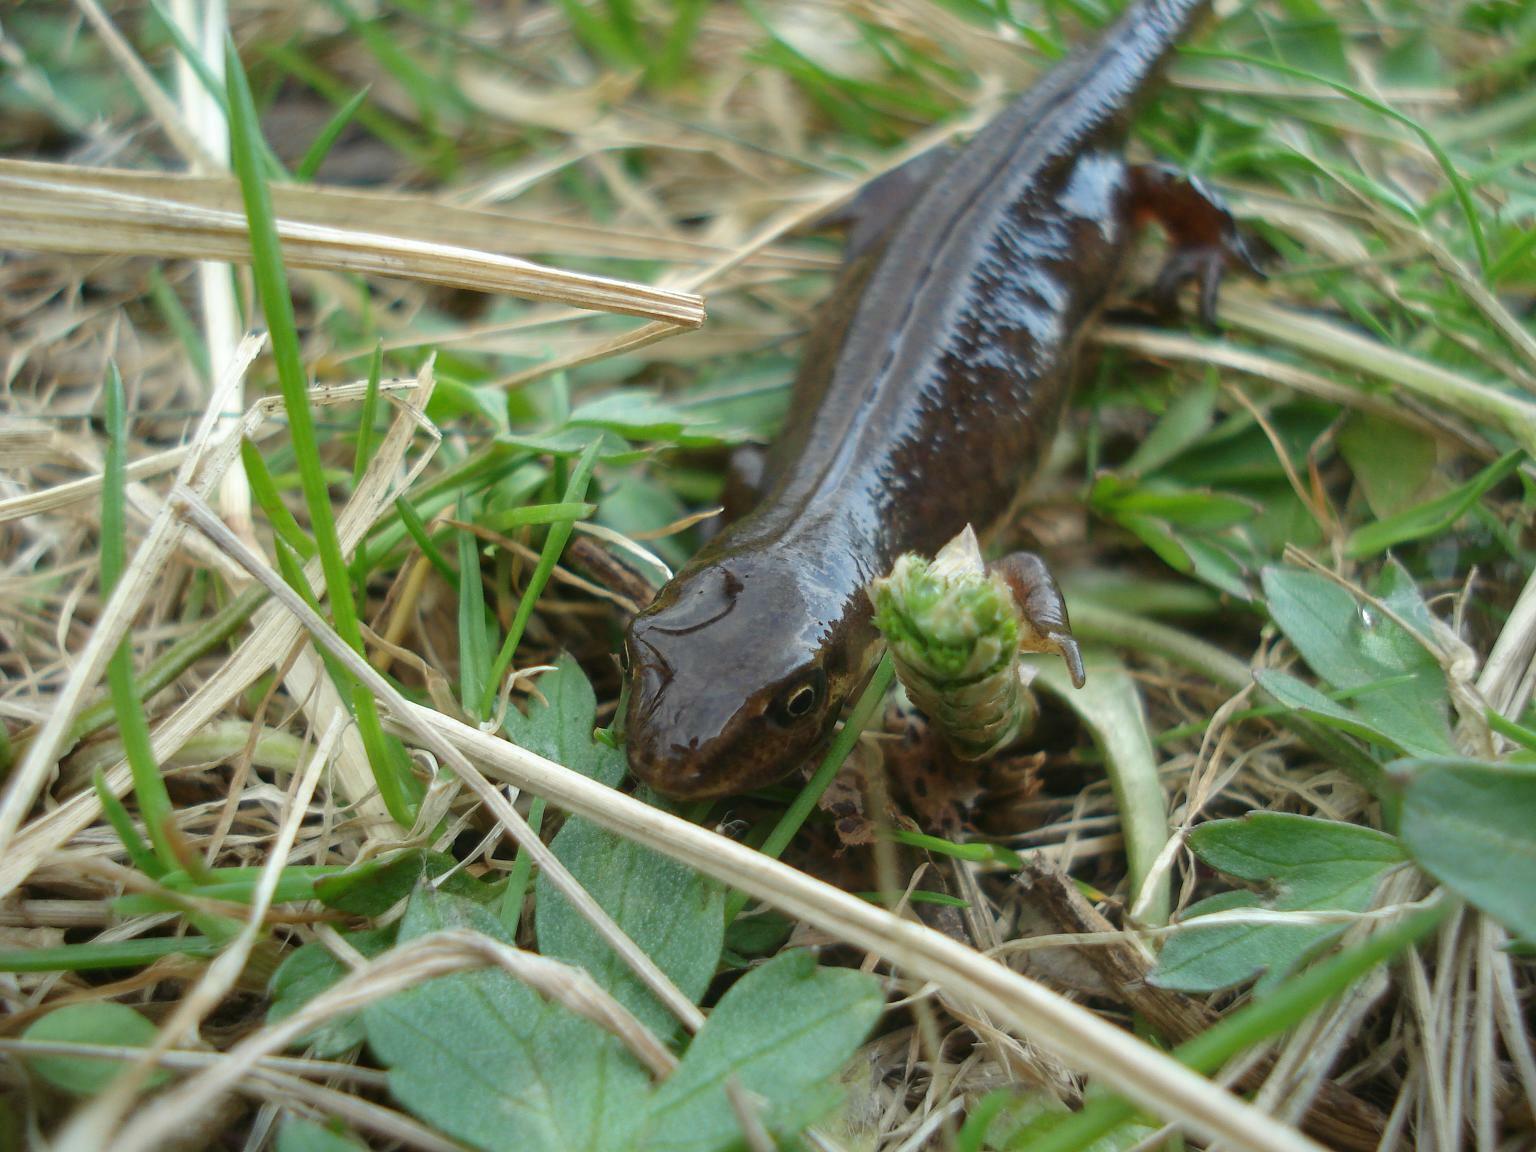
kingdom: Animalia
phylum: Chordata
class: Amphibia
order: Caudata
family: Salamandridae
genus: Lissotriton
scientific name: Lissotriton vulgaris
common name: Smooth newt
